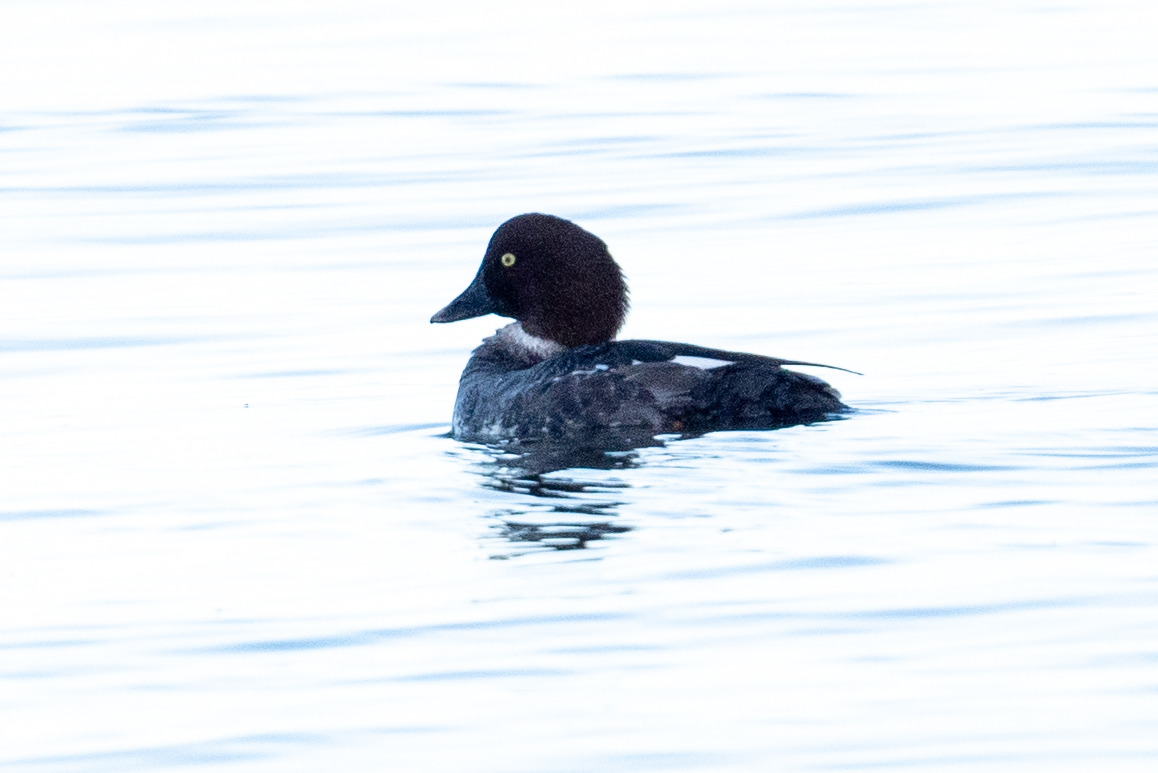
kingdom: Animalia
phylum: Chordata
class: Aves
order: Anseriformes
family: Anatidae
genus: Bucephala
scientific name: Bucephala clangula
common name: Common goldeneye
